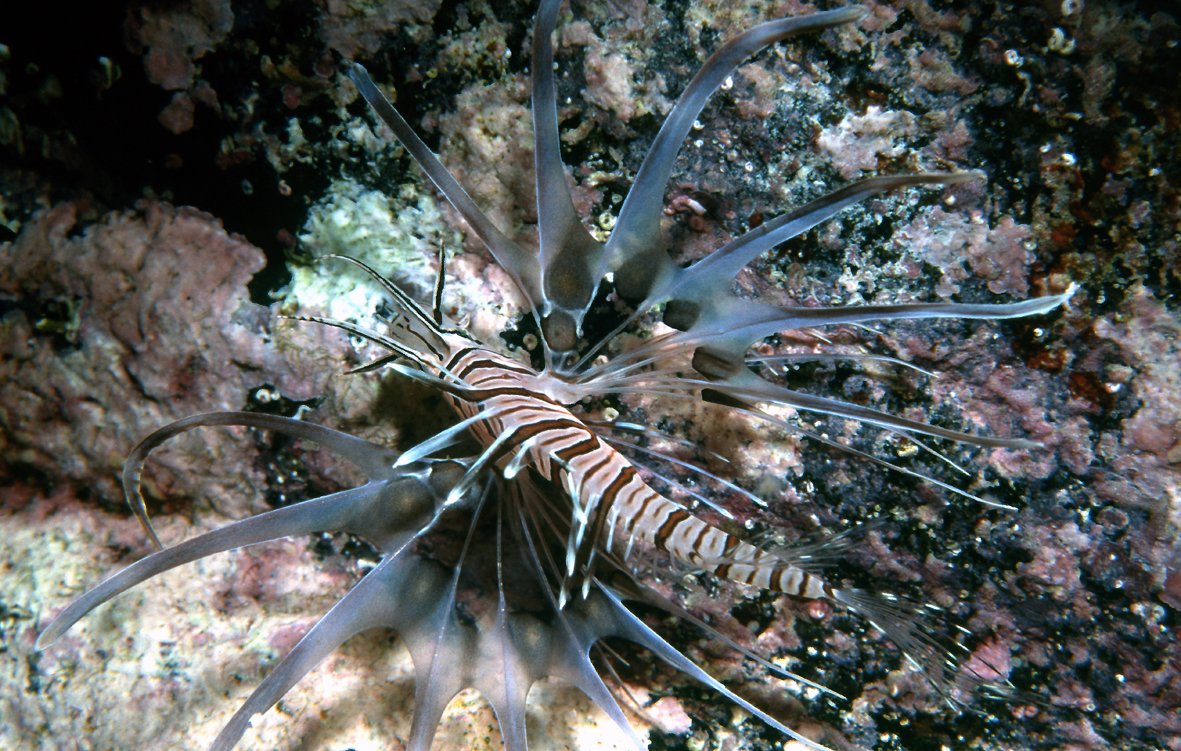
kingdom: Animalia
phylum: Chordata
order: Scorpaeniformes
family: Scorpaenidae
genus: Pterois
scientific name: Pterois volitans
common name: Lionfish
